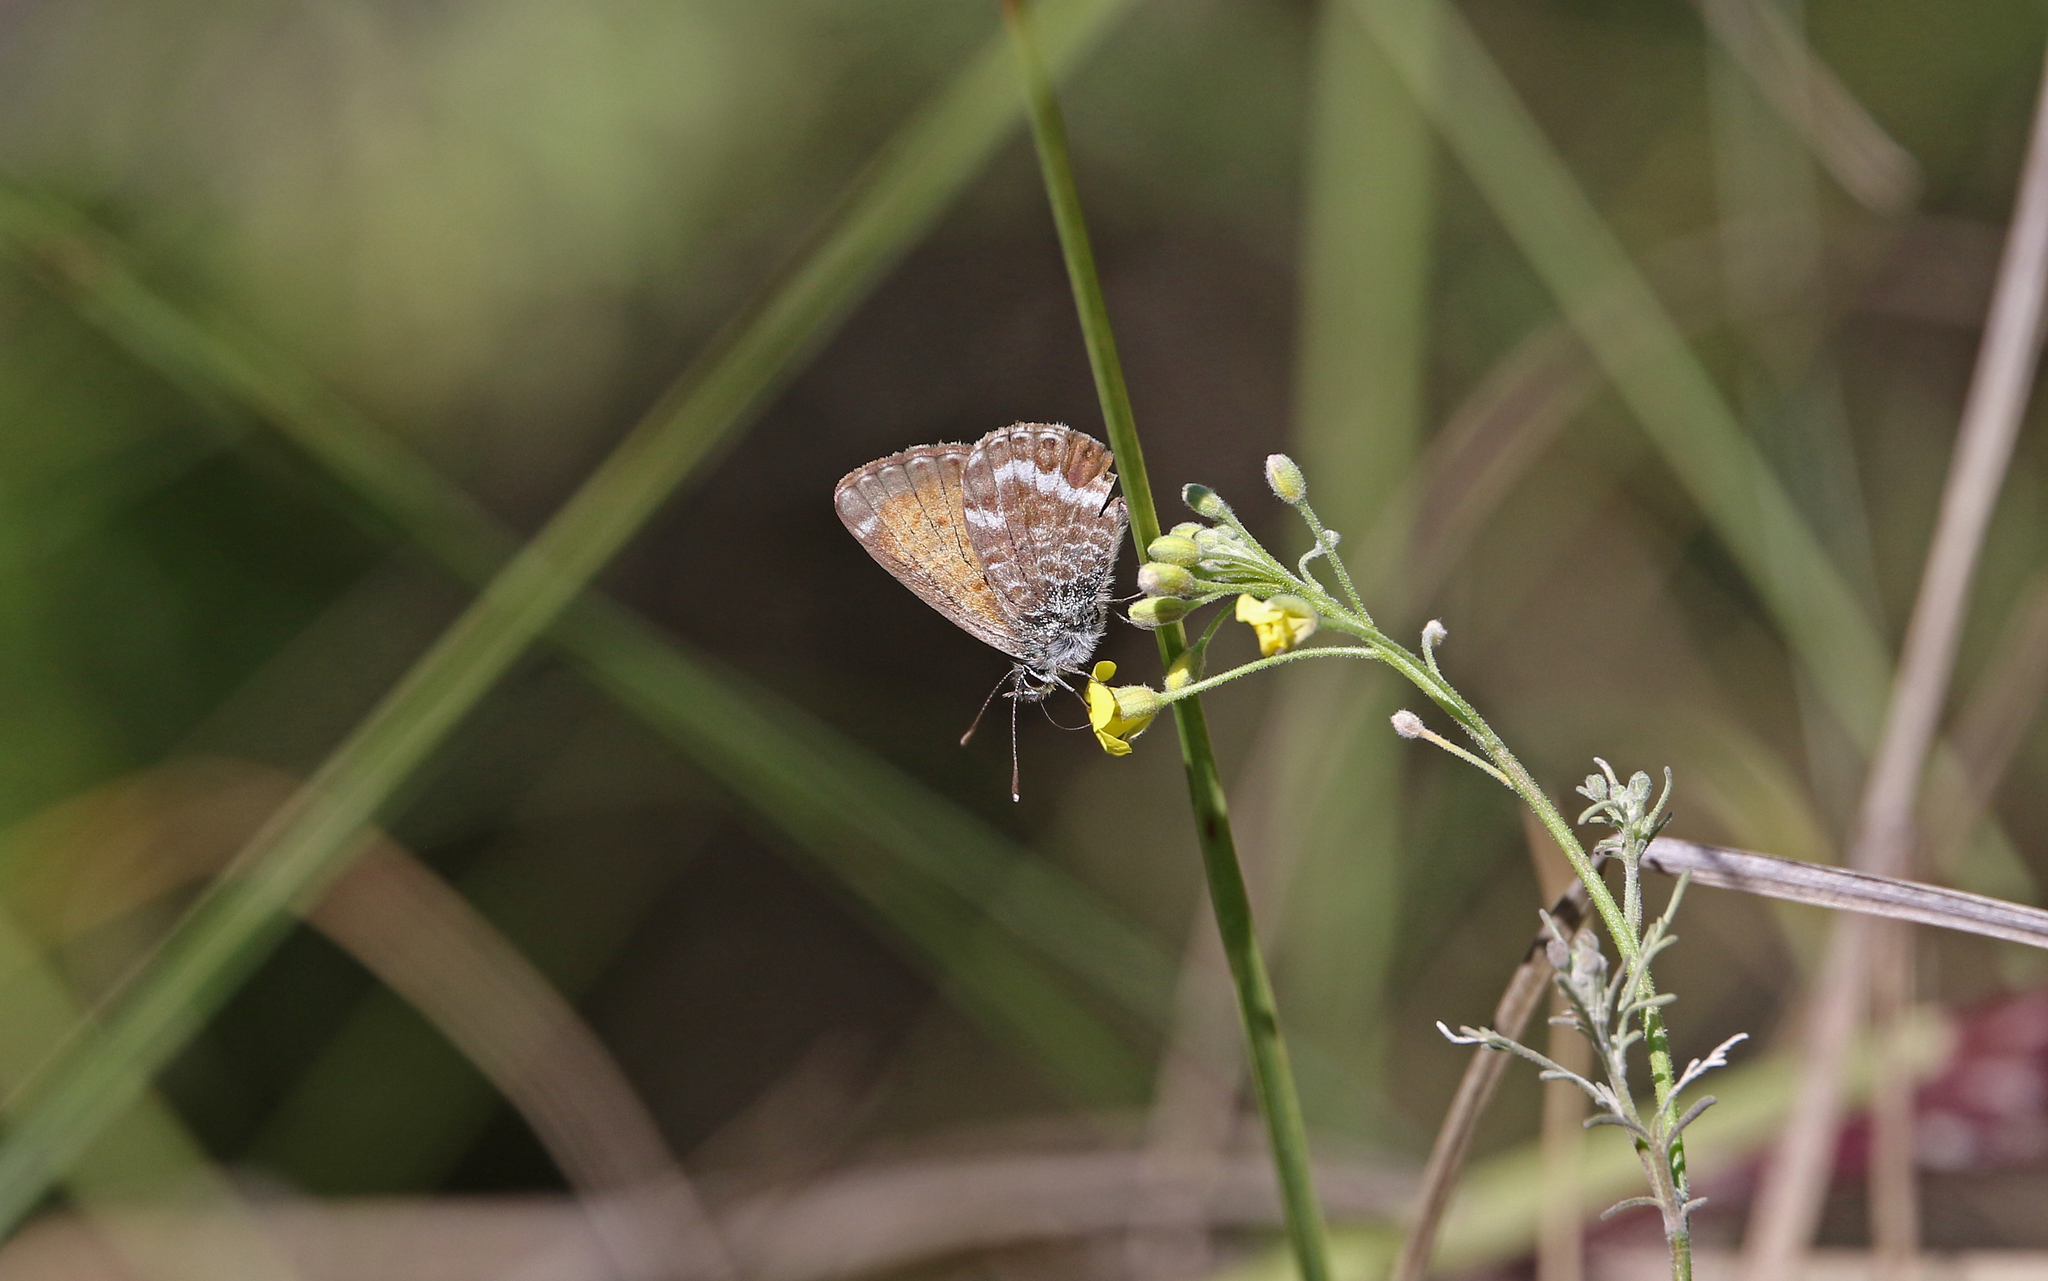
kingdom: Animalia
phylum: Arthropoda
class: Insecta
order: Lepidoptera
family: Lycaenidae
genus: Cyclyrius
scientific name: Cyclyrius webbianus
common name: Canary blue
